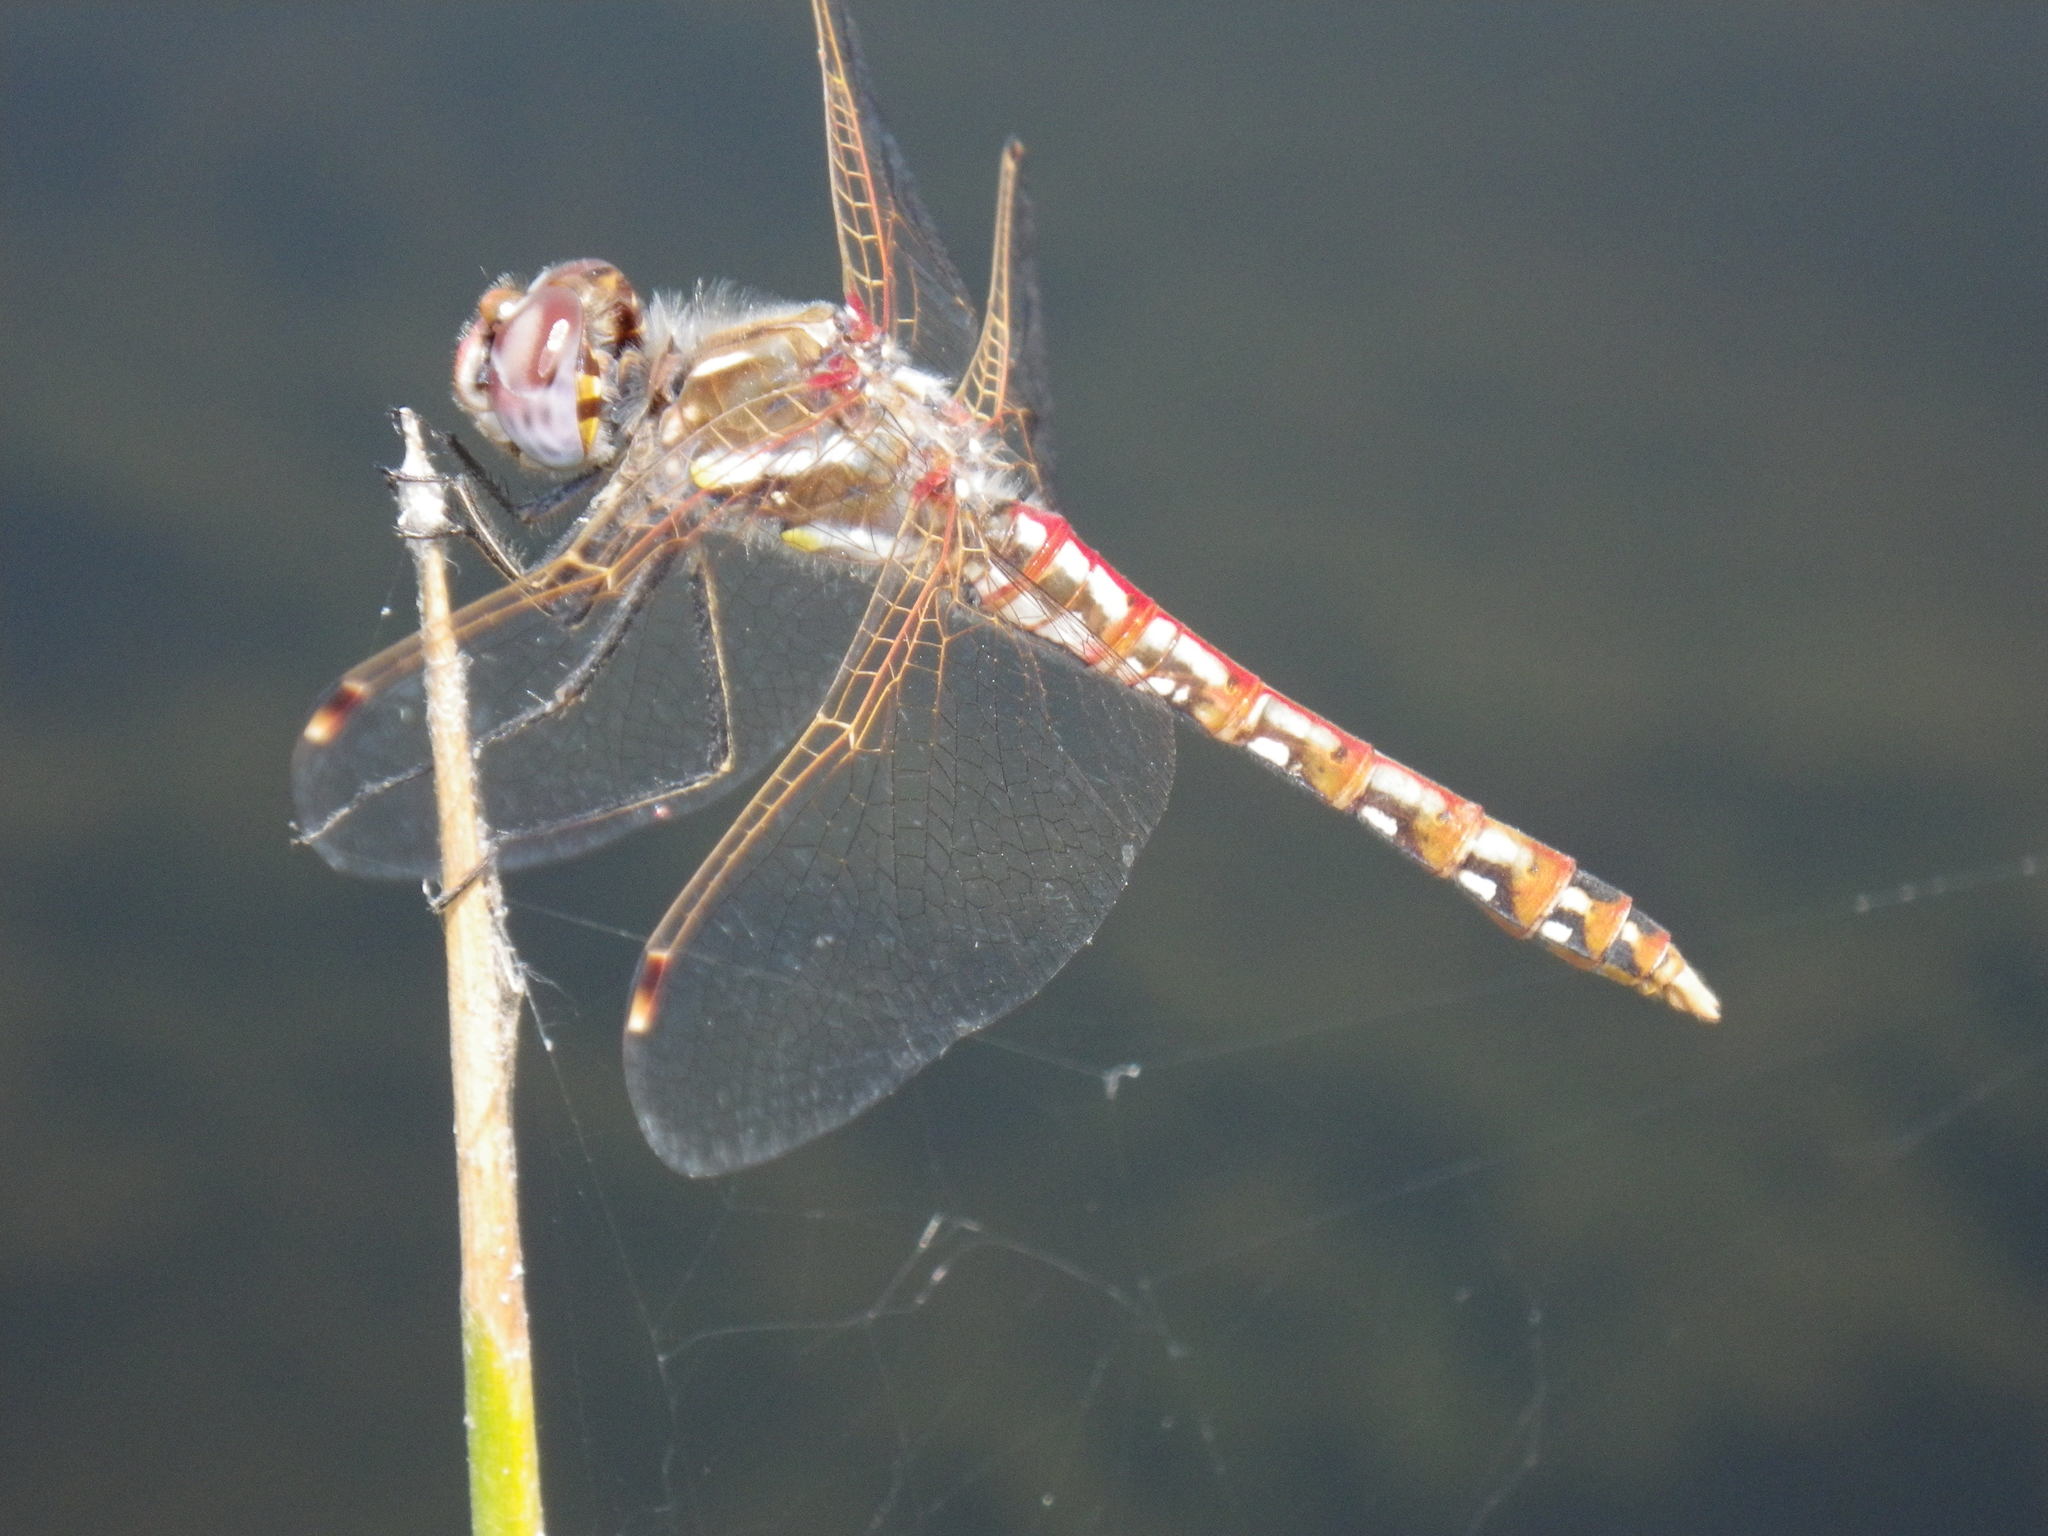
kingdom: Animalia
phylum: Arthropoda
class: Insecta
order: Odonata
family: Libellulidae
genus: Sympetrum
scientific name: Sympetrum corruptum
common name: Variegated meadowhawk
